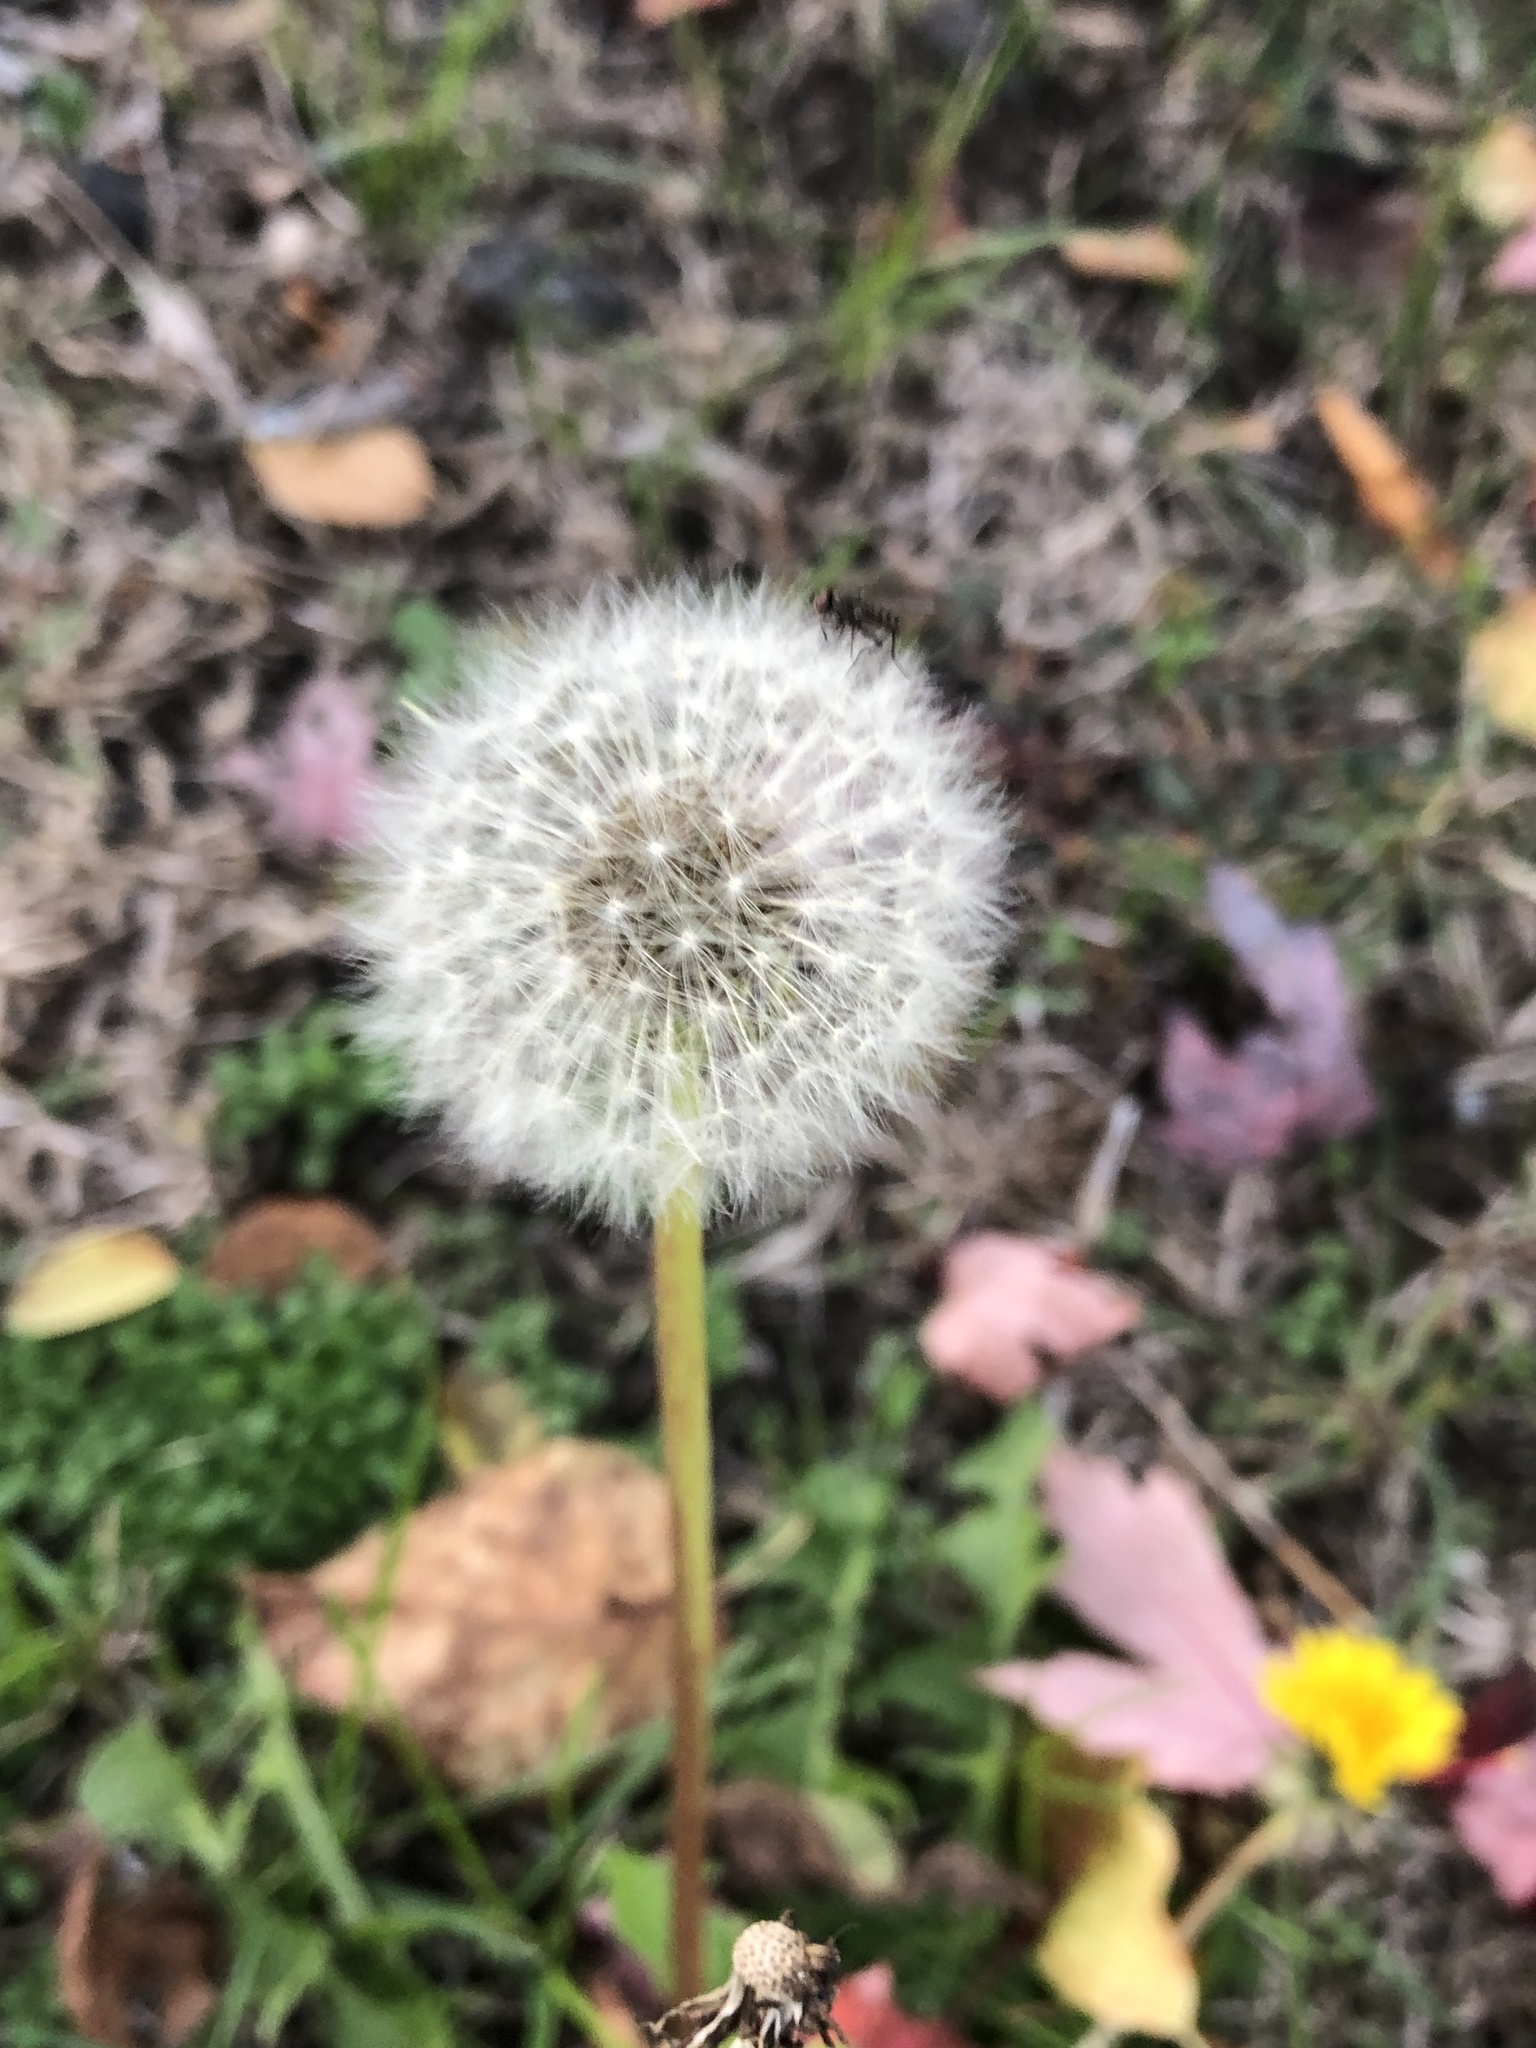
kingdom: Plantae
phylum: Tracheophyta
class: Magnoliopsida
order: Asterales
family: Asteraceae
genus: Taraxacum
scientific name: Taraxacum officinale
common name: Common dandelion
